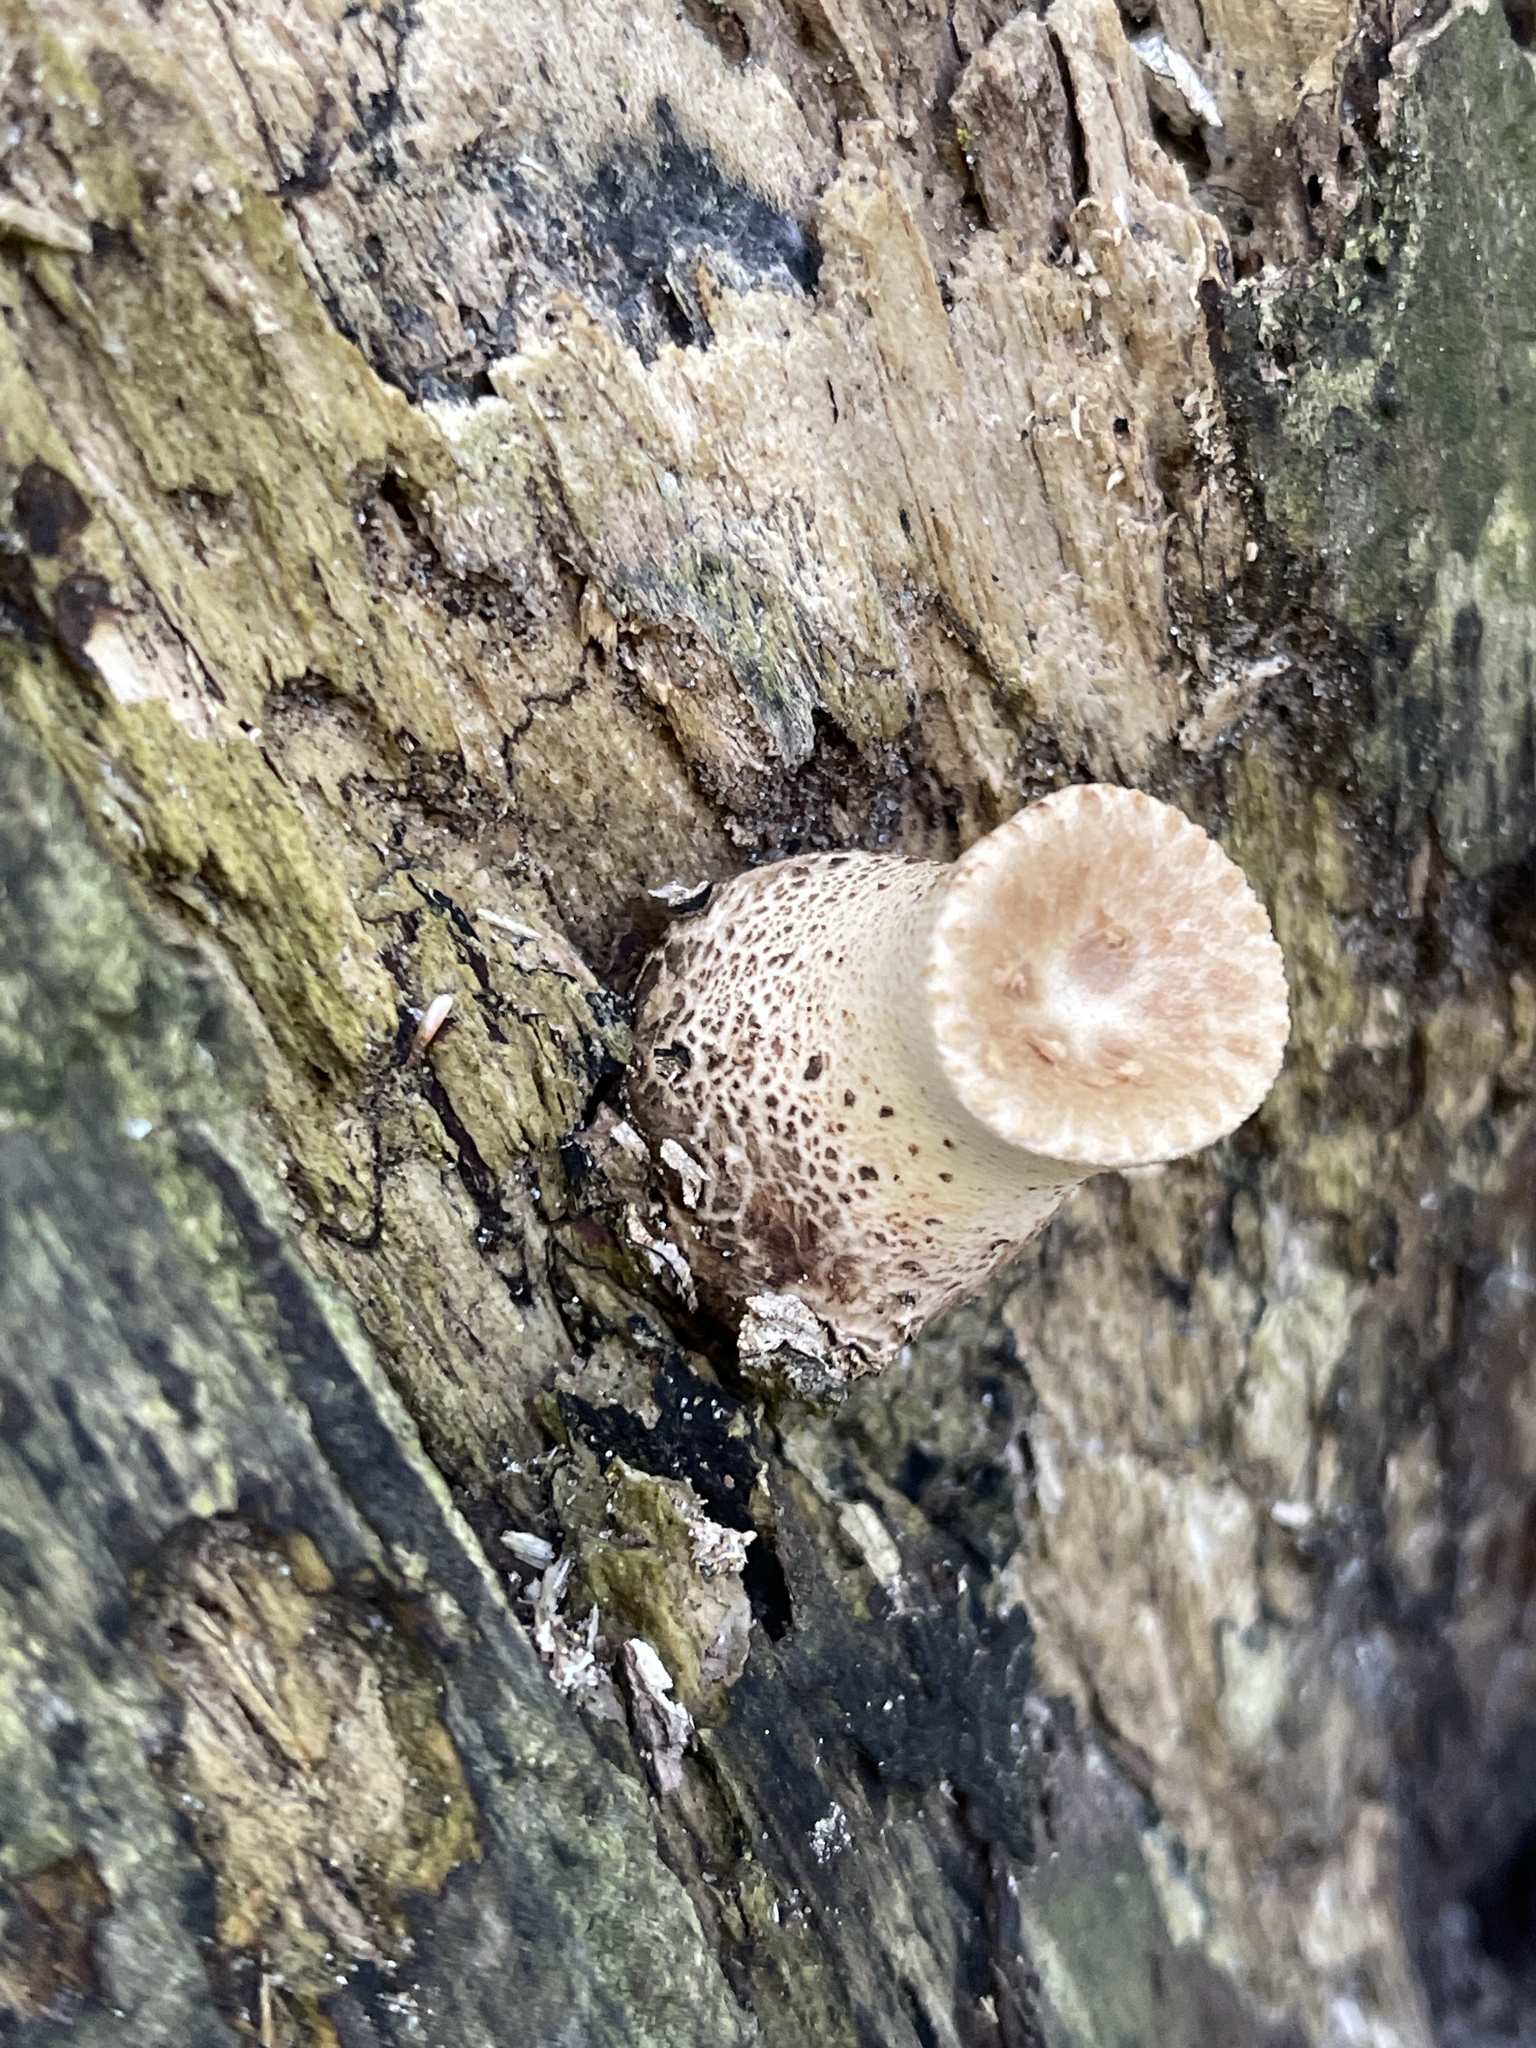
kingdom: Fungi
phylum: Basidiomycota
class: Agaricomycetes
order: Polyporales
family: Polyporaceae
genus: Cerioporus
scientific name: Cerioporus squamosus
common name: Dryad's saddle
